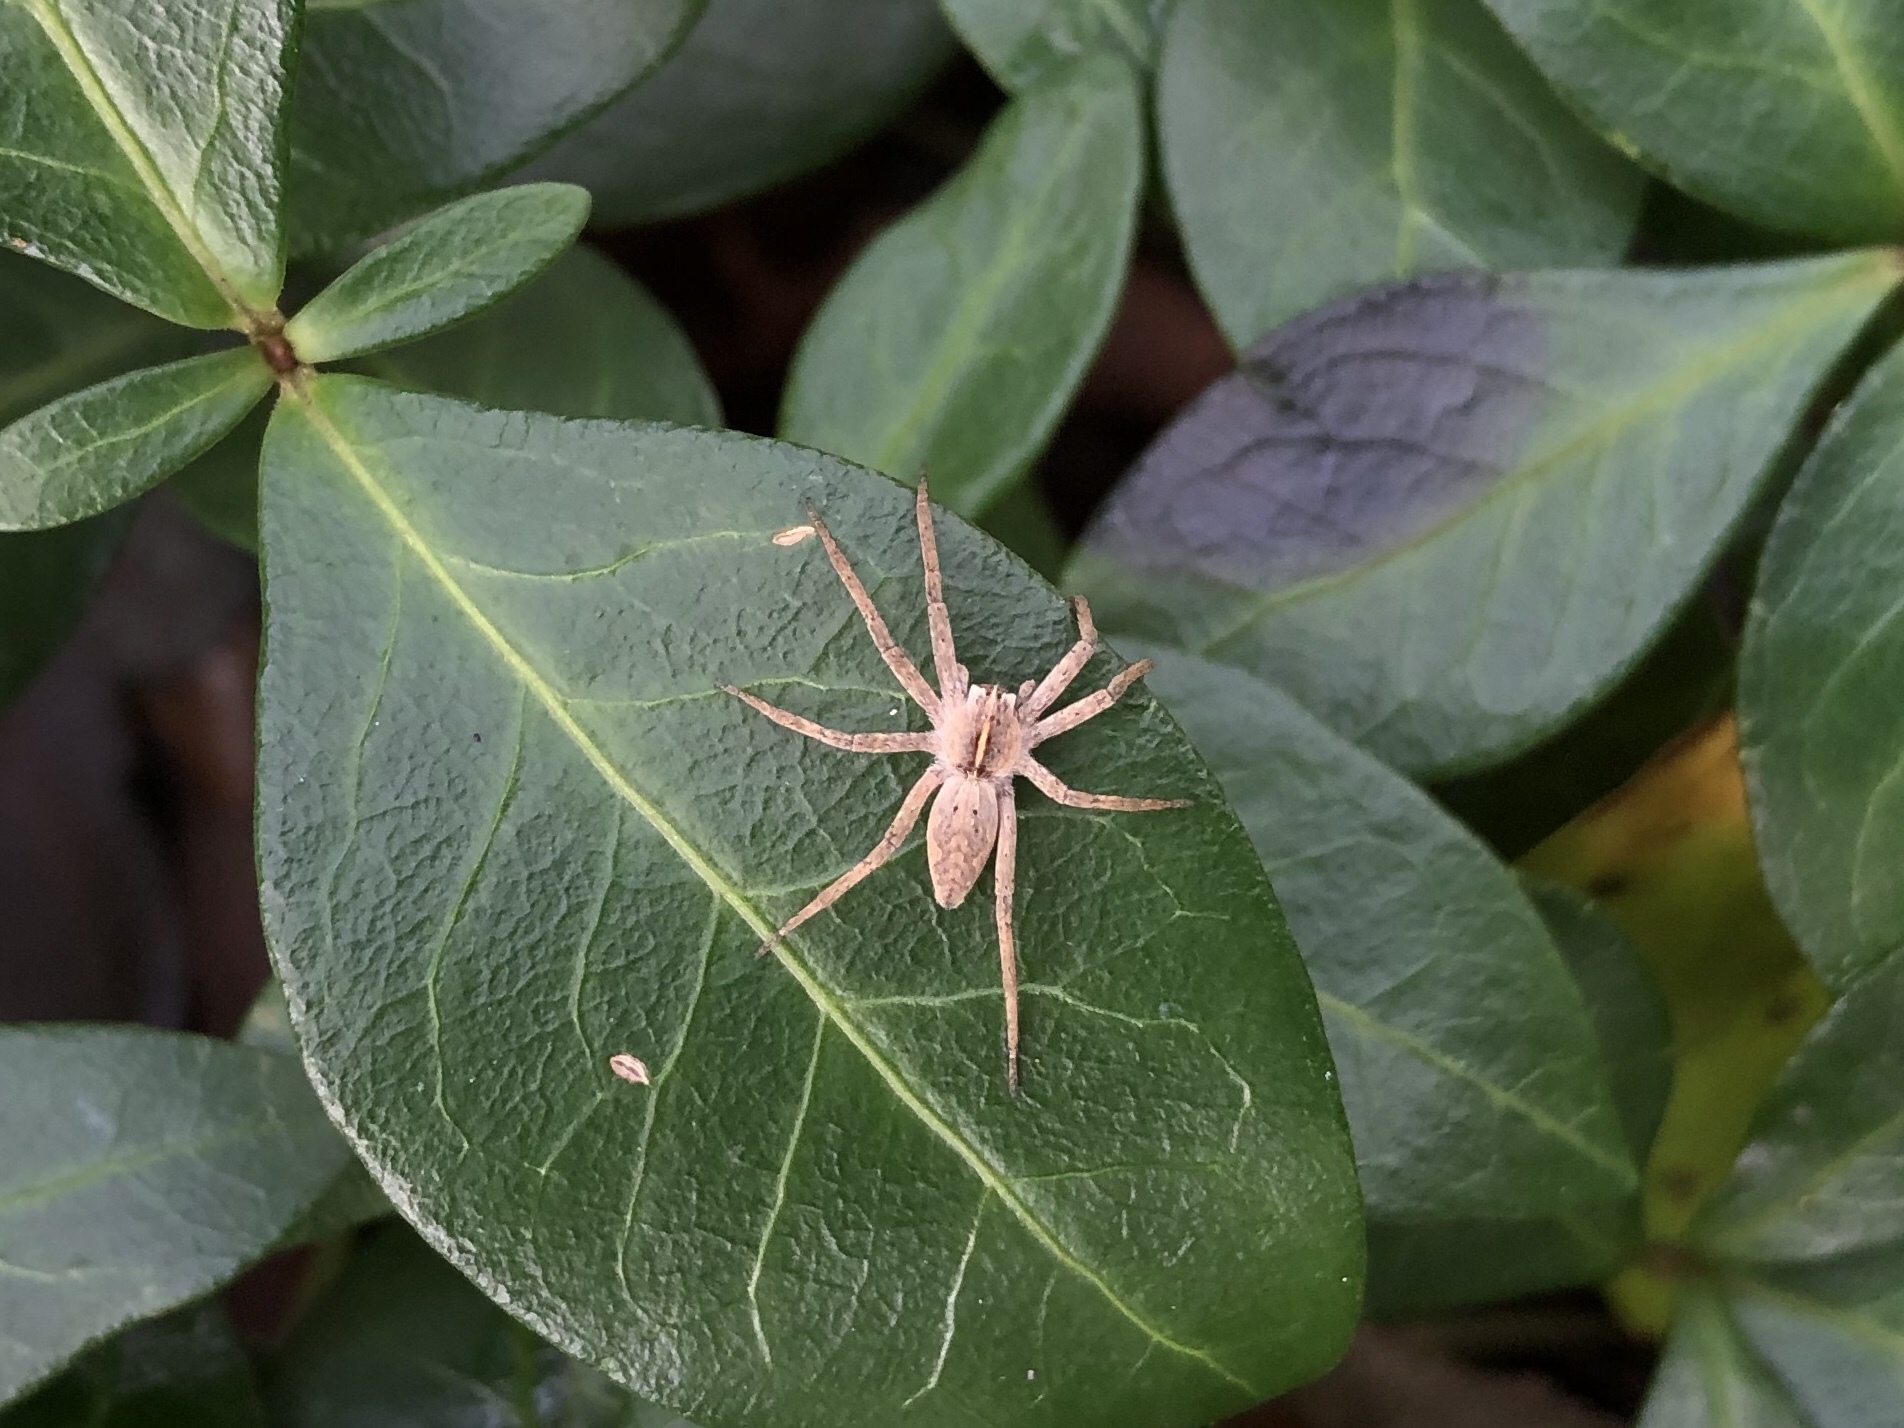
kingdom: Animalia
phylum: Arthropoda
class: Arachnida
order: Araneae
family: Pisauridae
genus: Pisaura
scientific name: Pisaura mirabilis
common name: Tent spider
